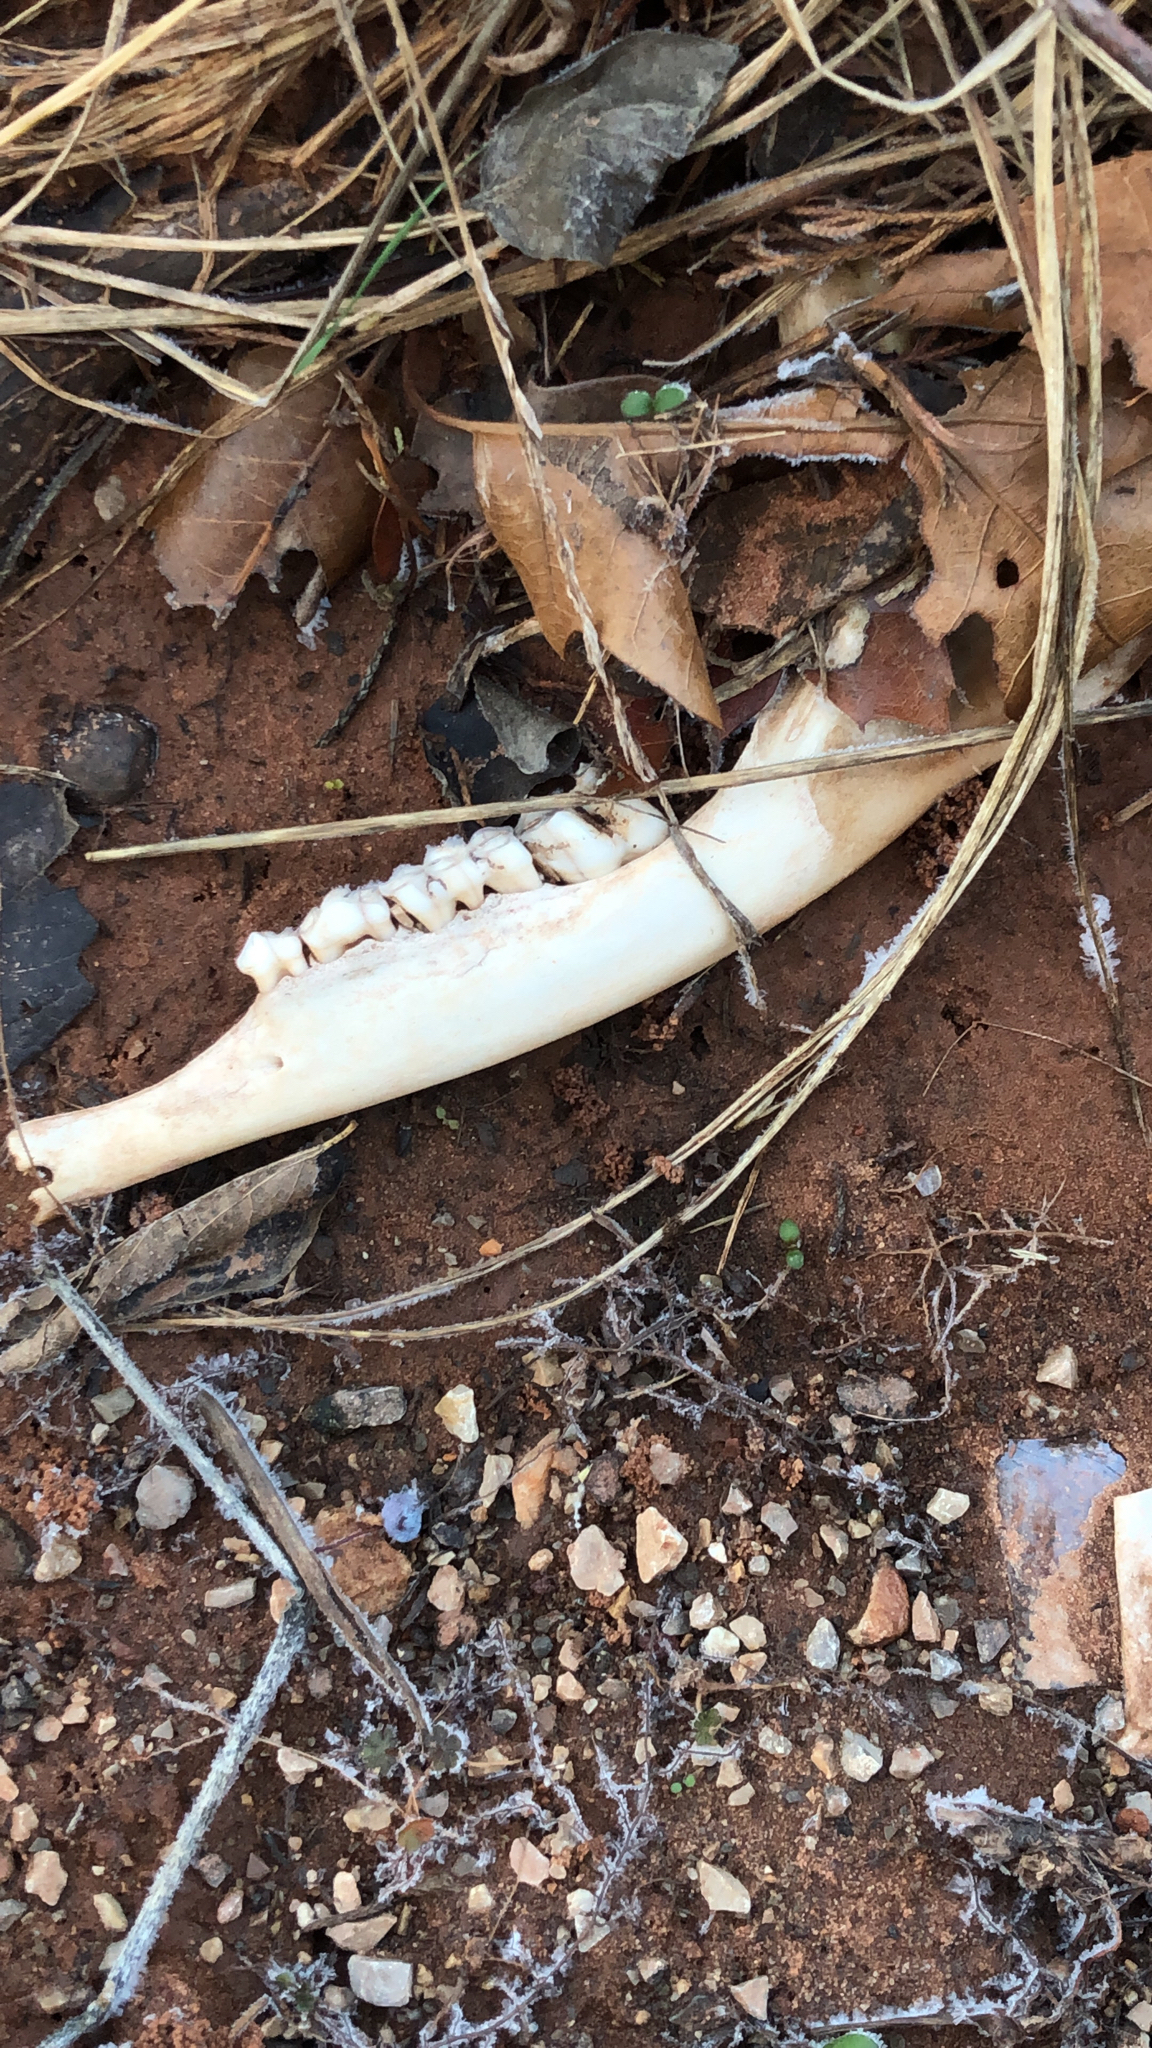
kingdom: Animalia
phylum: Chordata
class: Mammalia
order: Artiodactyla
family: Cervidae
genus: Odocoileus
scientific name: Odocoileus virginianus
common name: White-tailed deer
